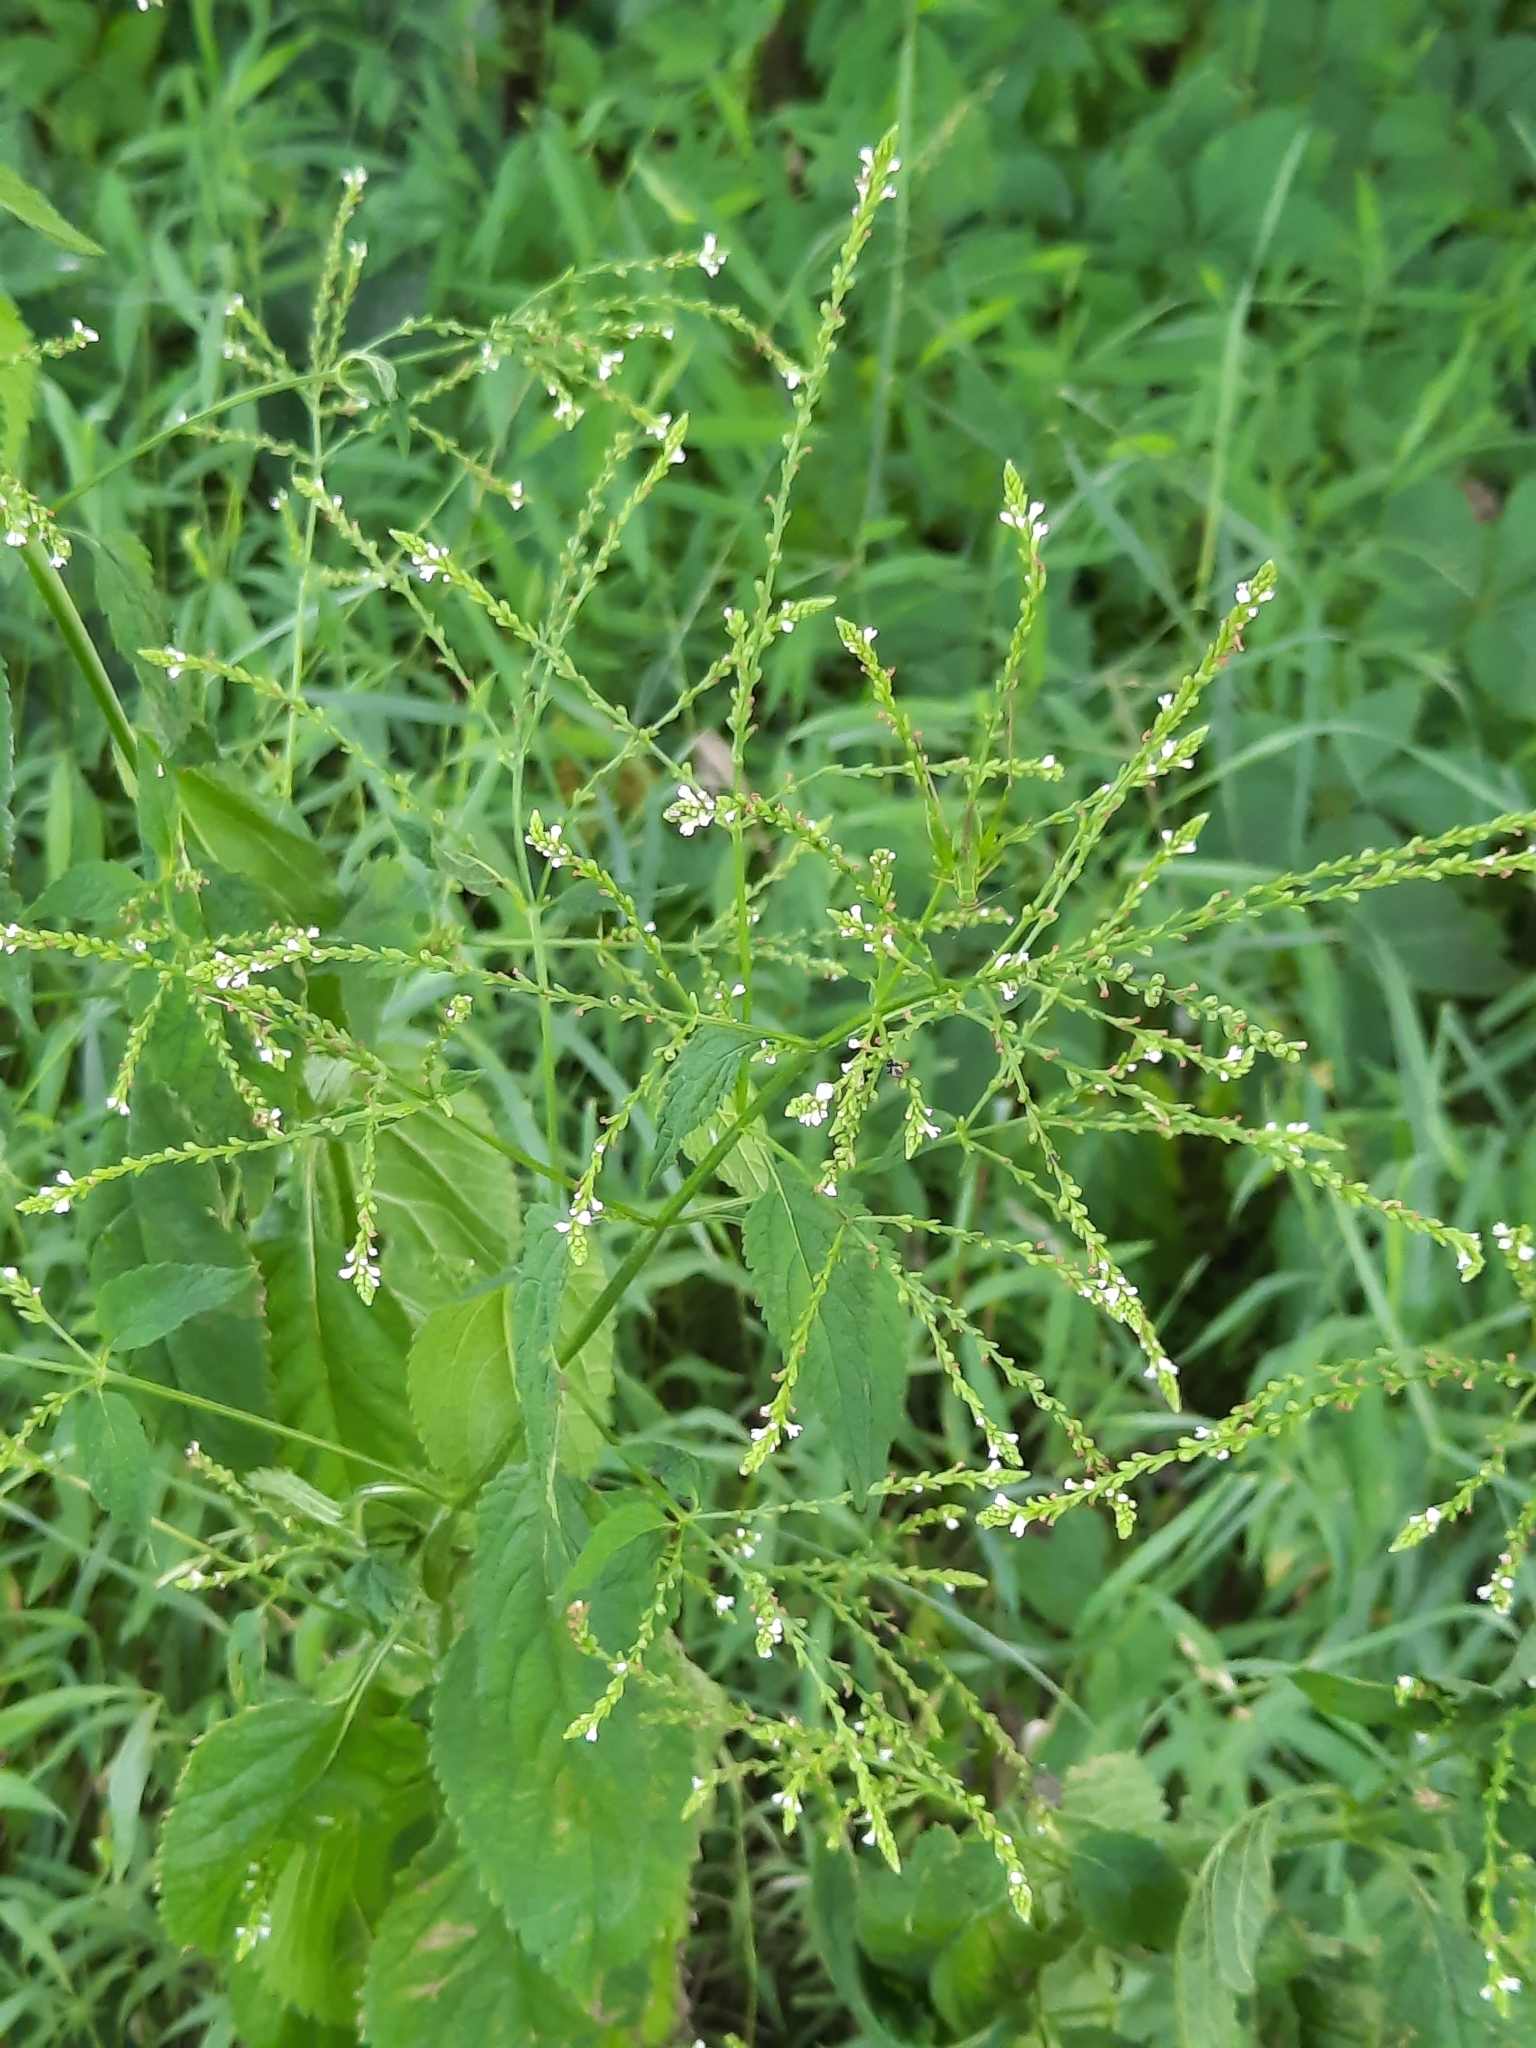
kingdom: Plantae
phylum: Tracheophyta
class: Magnoliopsida
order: Lamiales
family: Verbenaceae
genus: Verbena
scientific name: Verbena urticifolia
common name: Nettle-leaved vervain
